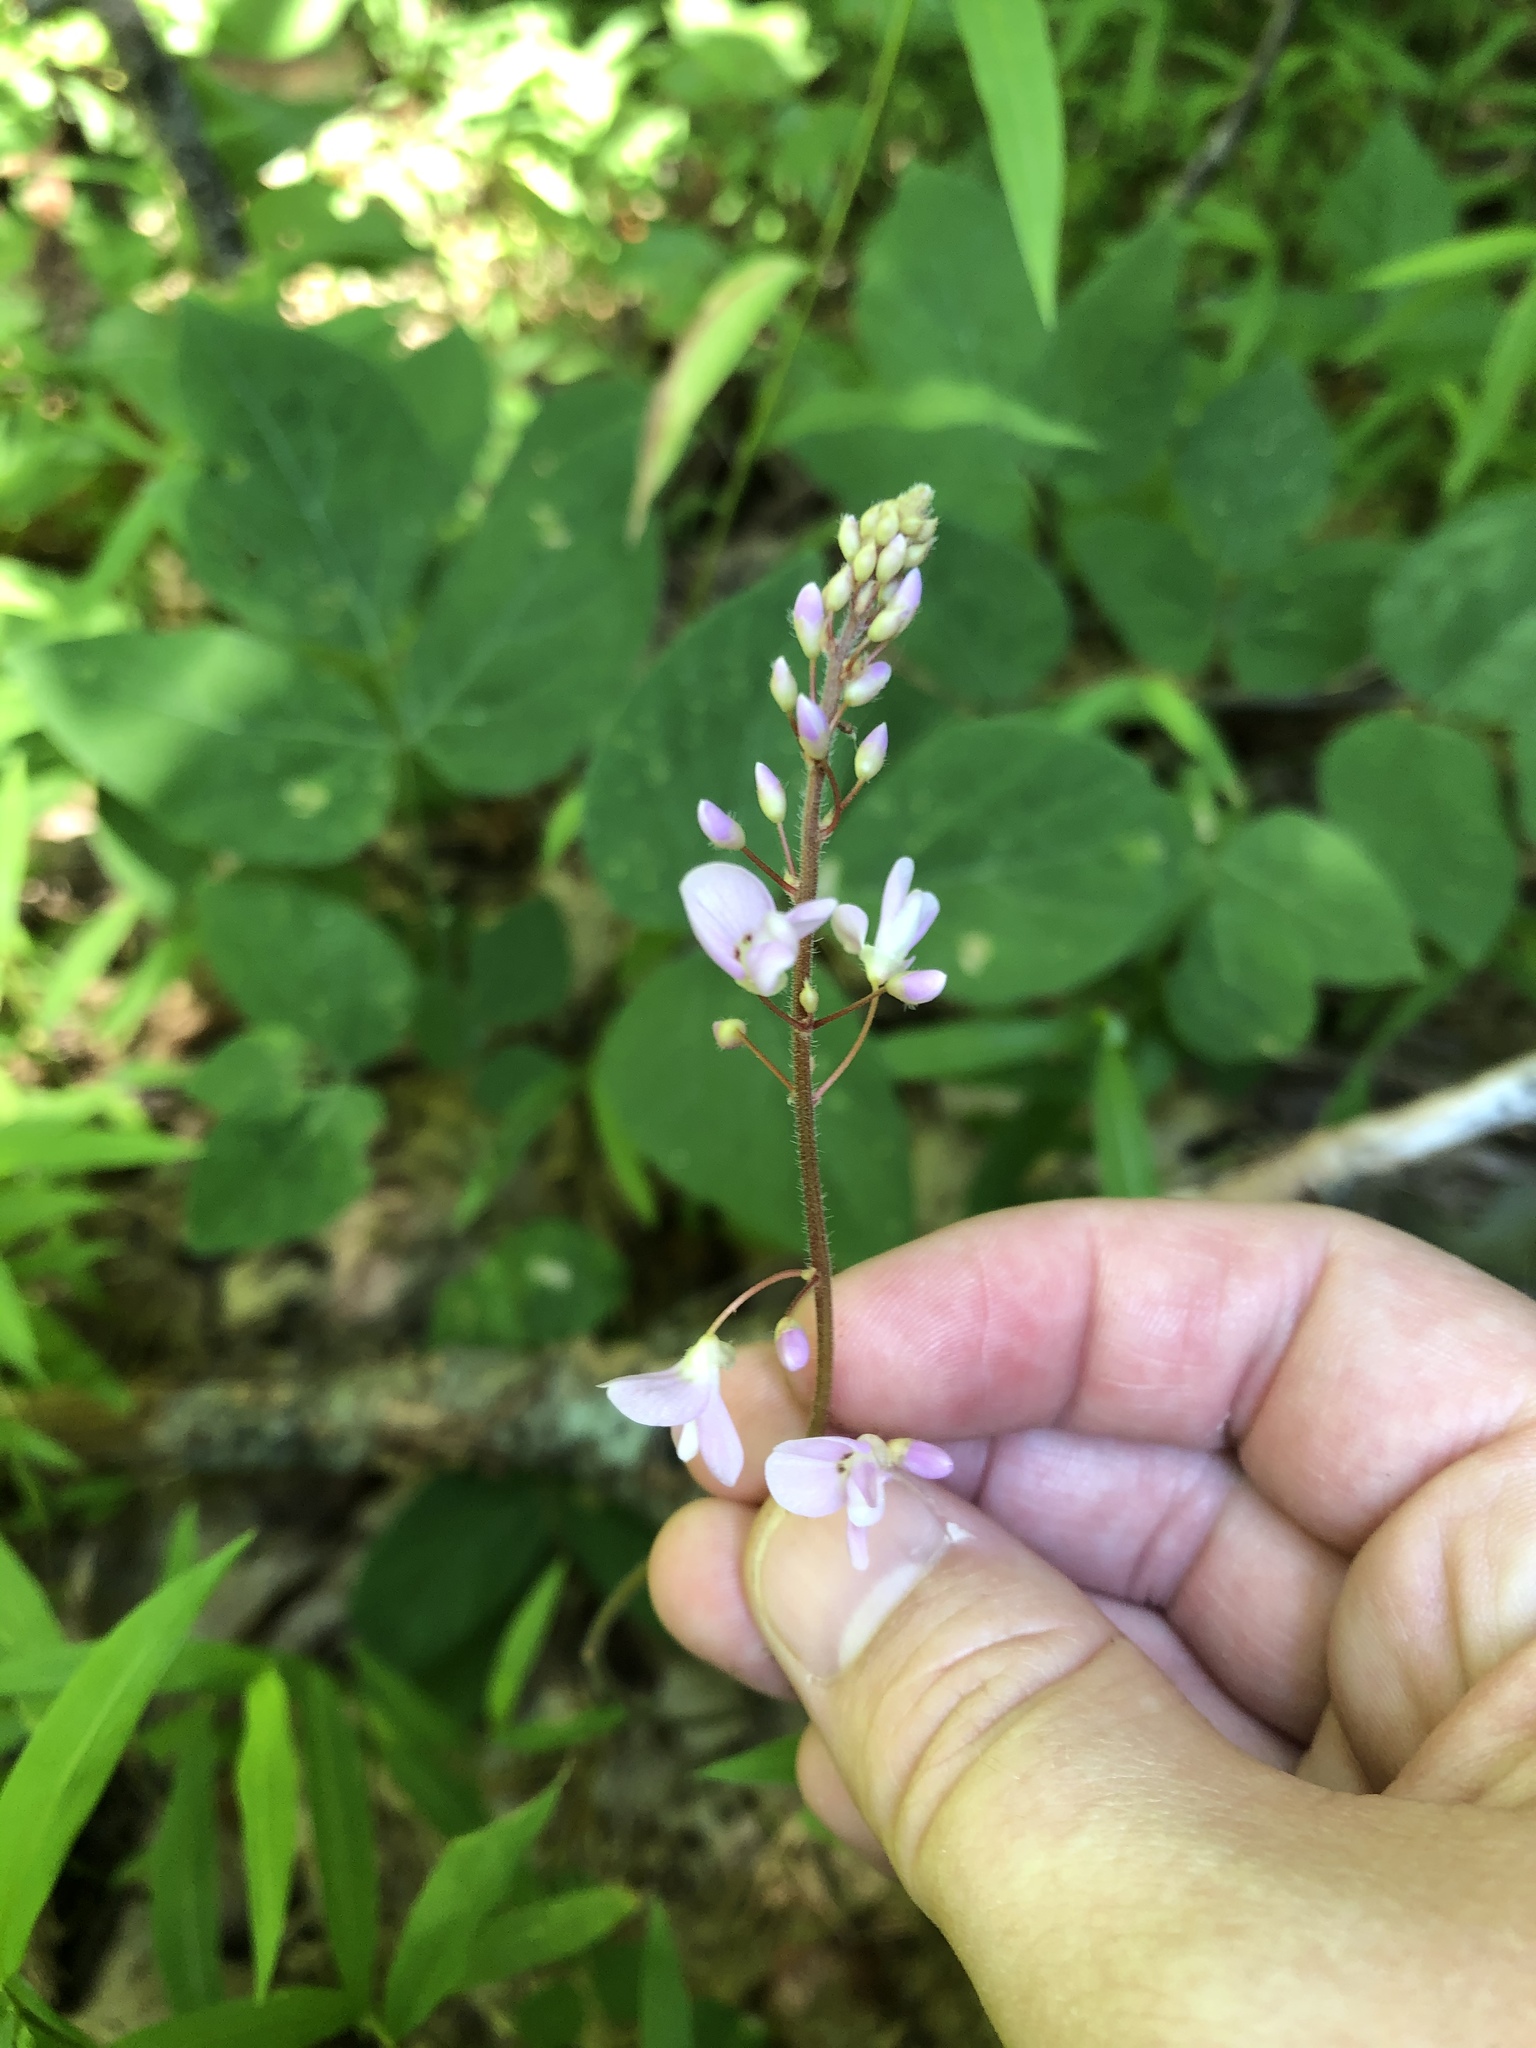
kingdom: Plantae
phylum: Tracheophyta
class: Magnoliopsida
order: Fabales
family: Fabaceae
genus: Hylodesmum
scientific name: Hylodesmum nudiflorum
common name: Bare-stemmed tick-trefoil
